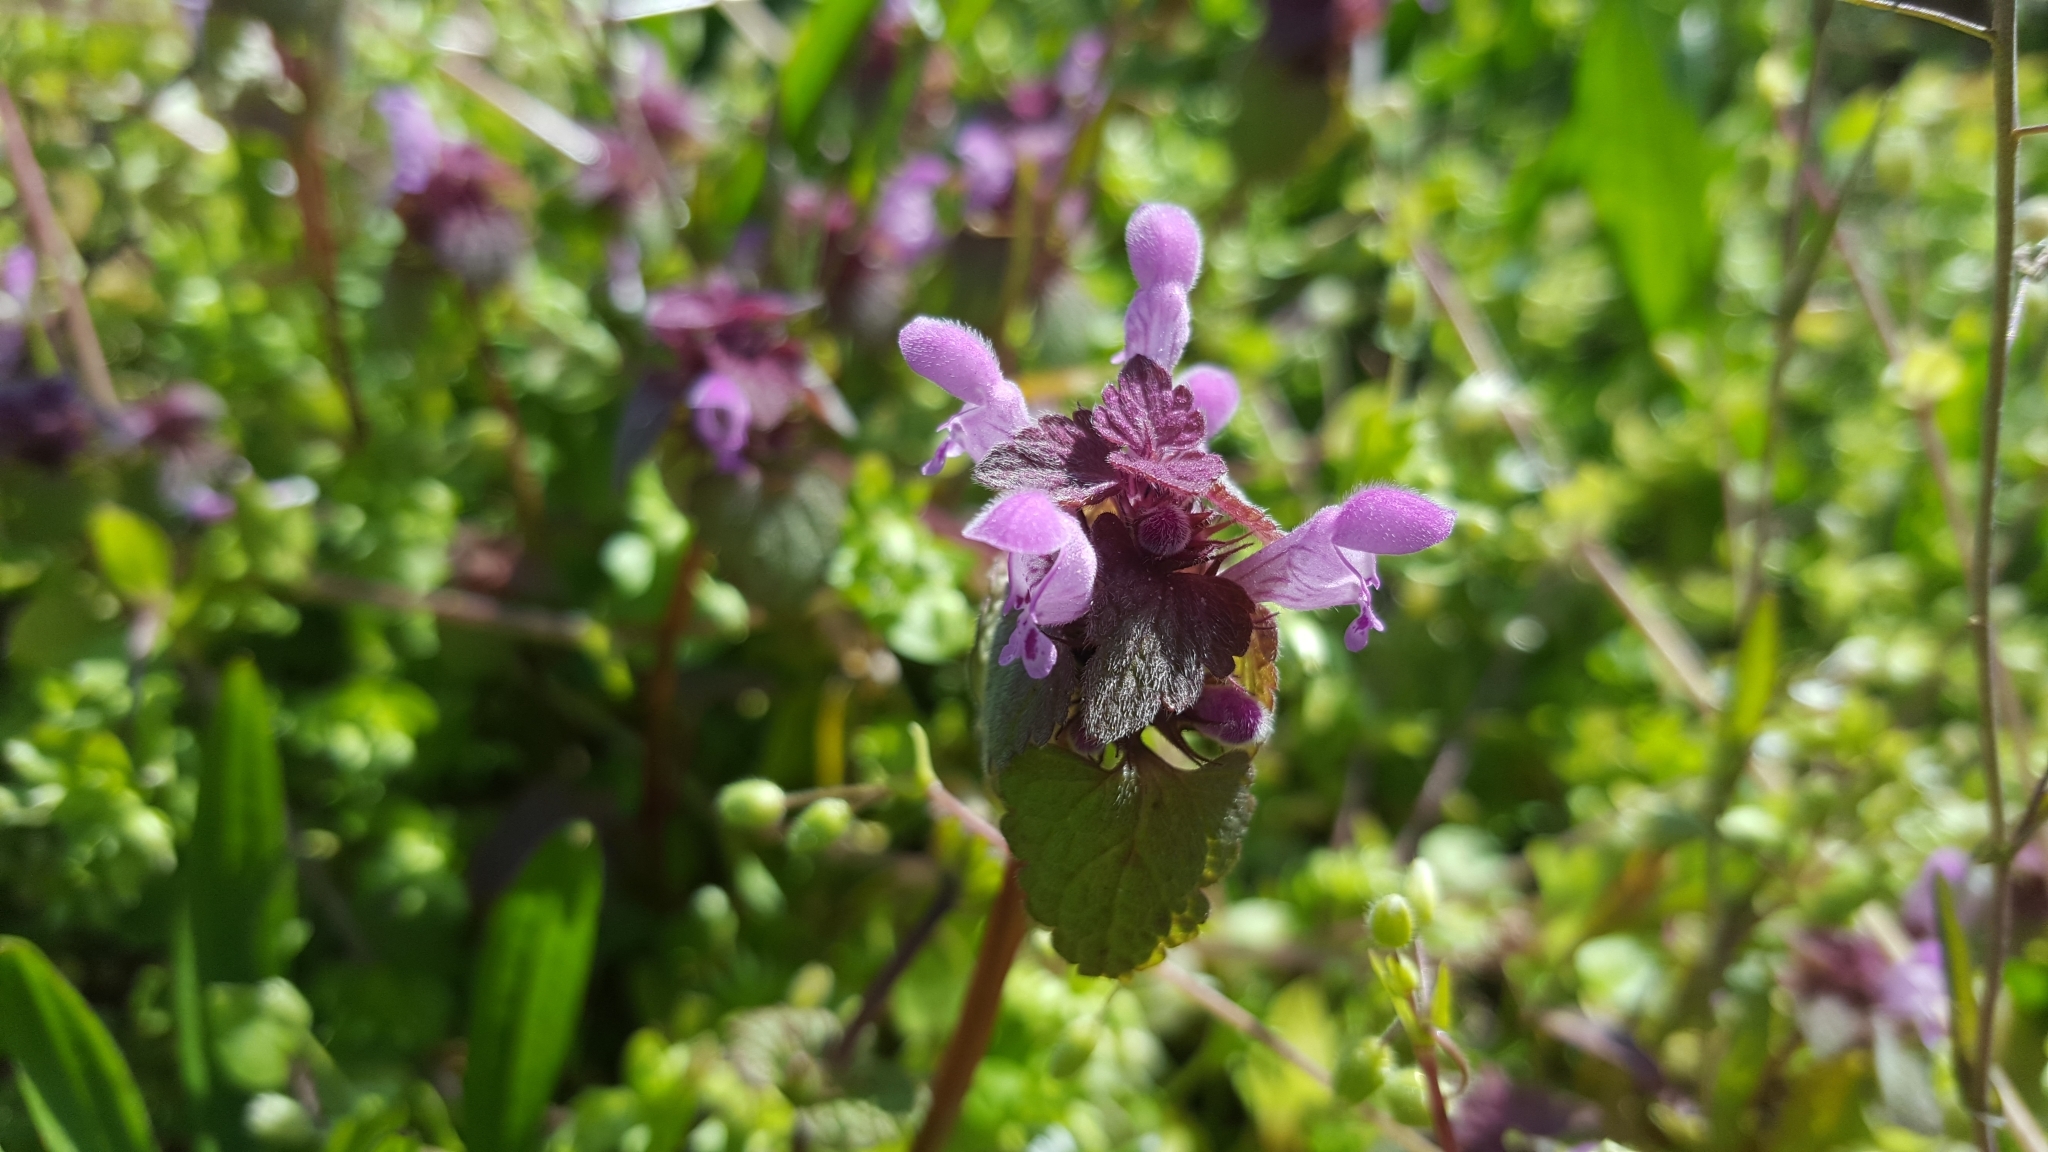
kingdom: Plantae
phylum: Tracheophyta
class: Magnoliopsida
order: Lamiales
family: Lamiaceae
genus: Lamium
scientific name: Lamium purpureum
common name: Red dead-nettle
